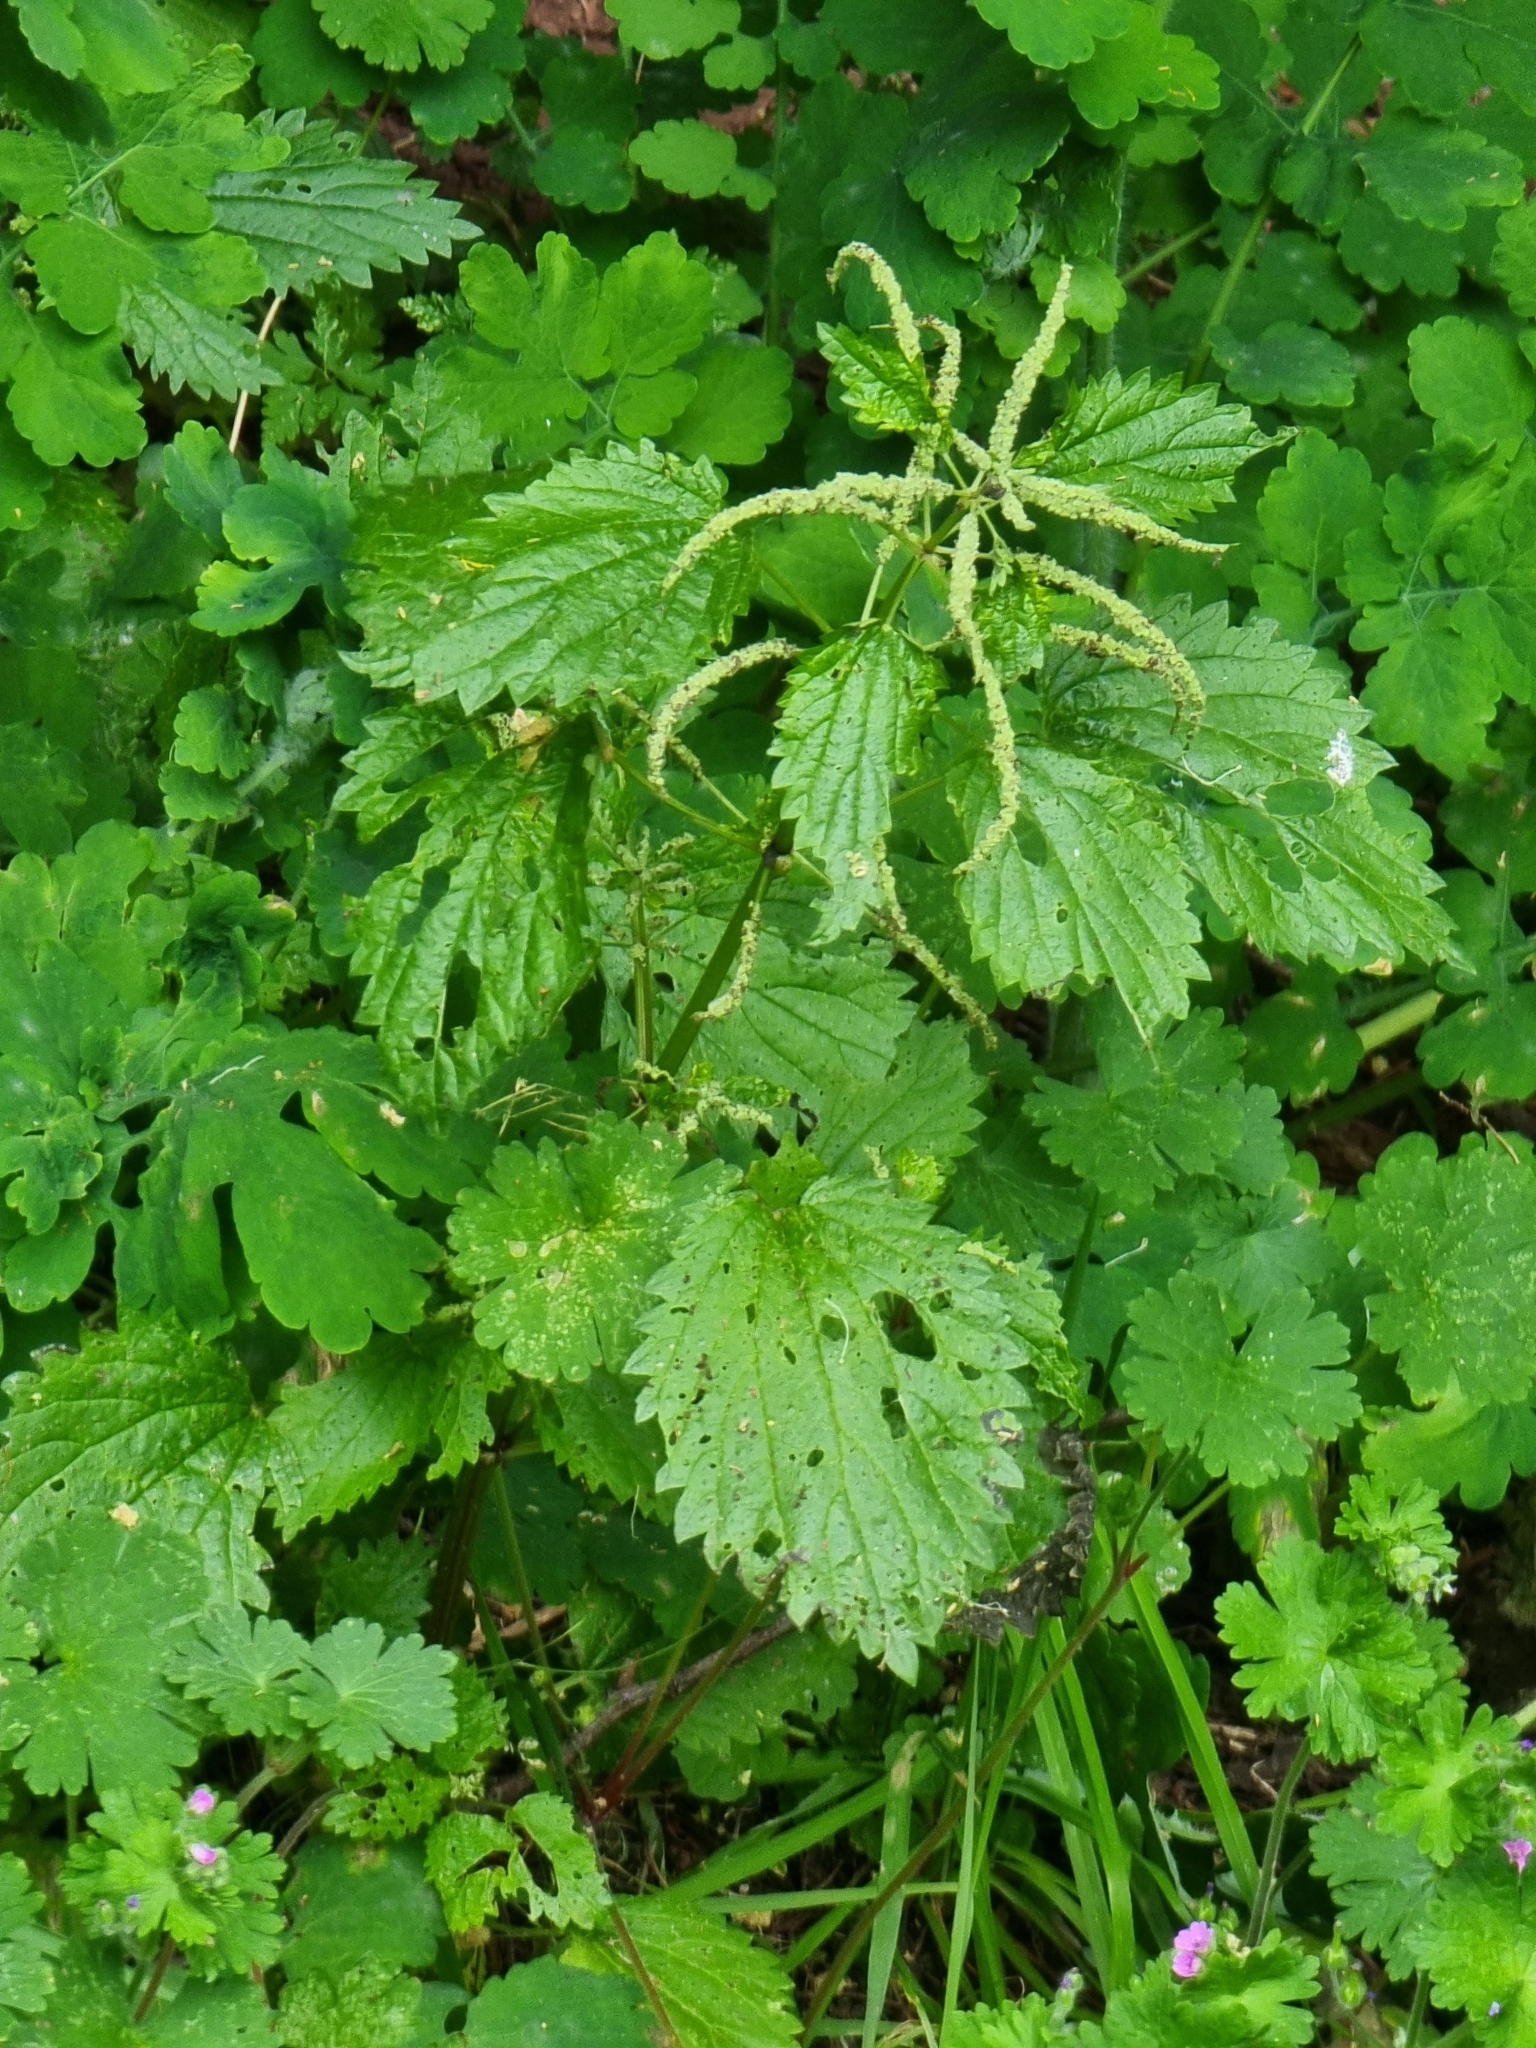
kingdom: Plantae
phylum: Tracheophyta
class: Magnoliopsida
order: Rosales
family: Urticaceae
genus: Urtica
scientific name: Urtica membranacea
